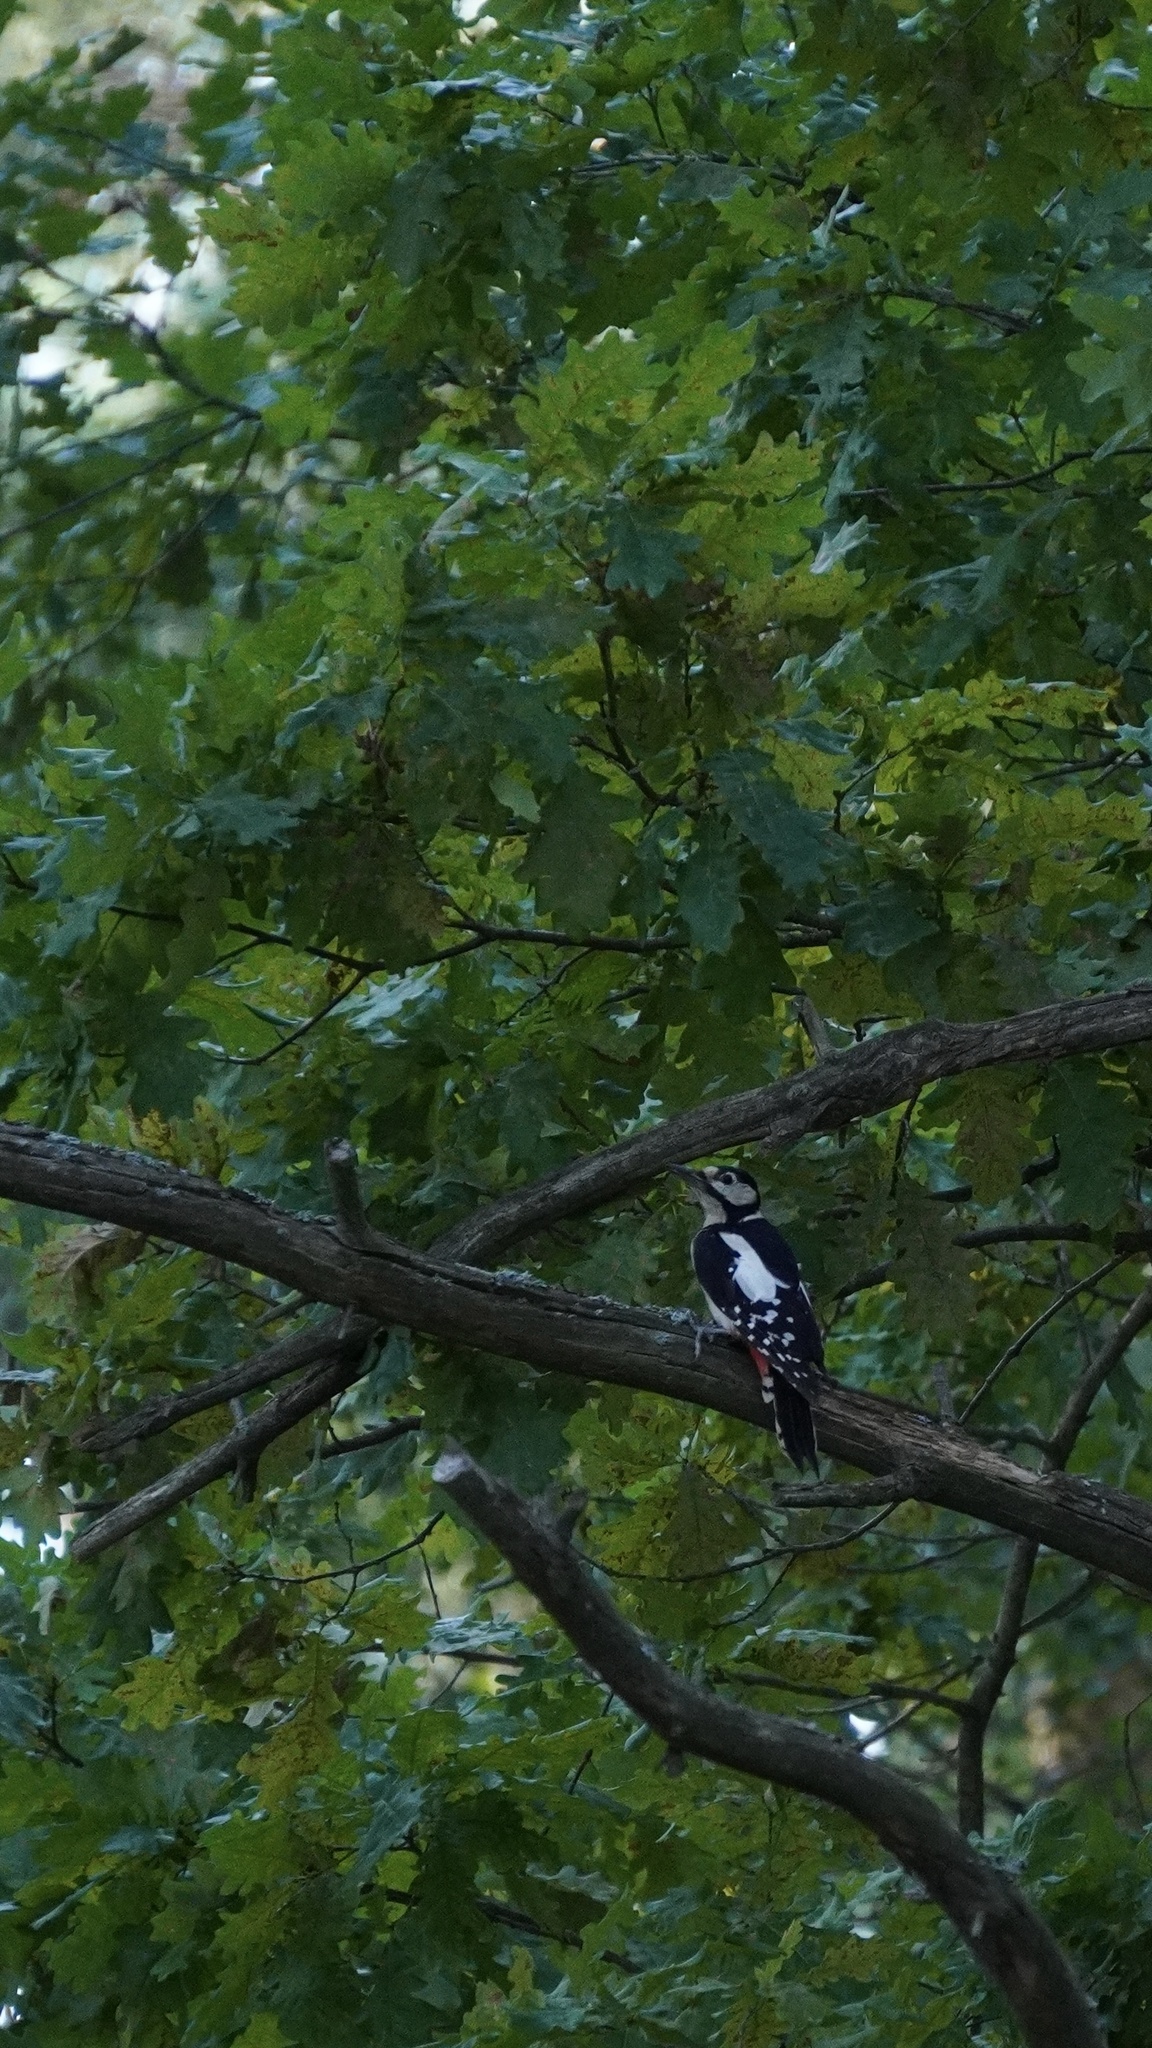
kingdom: Animalia
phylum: Chordata
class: Aves
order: Piciformes
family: Picidae
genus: Dendrocopos
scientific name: Dendrocopos major
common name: Great spotted woodpecker
